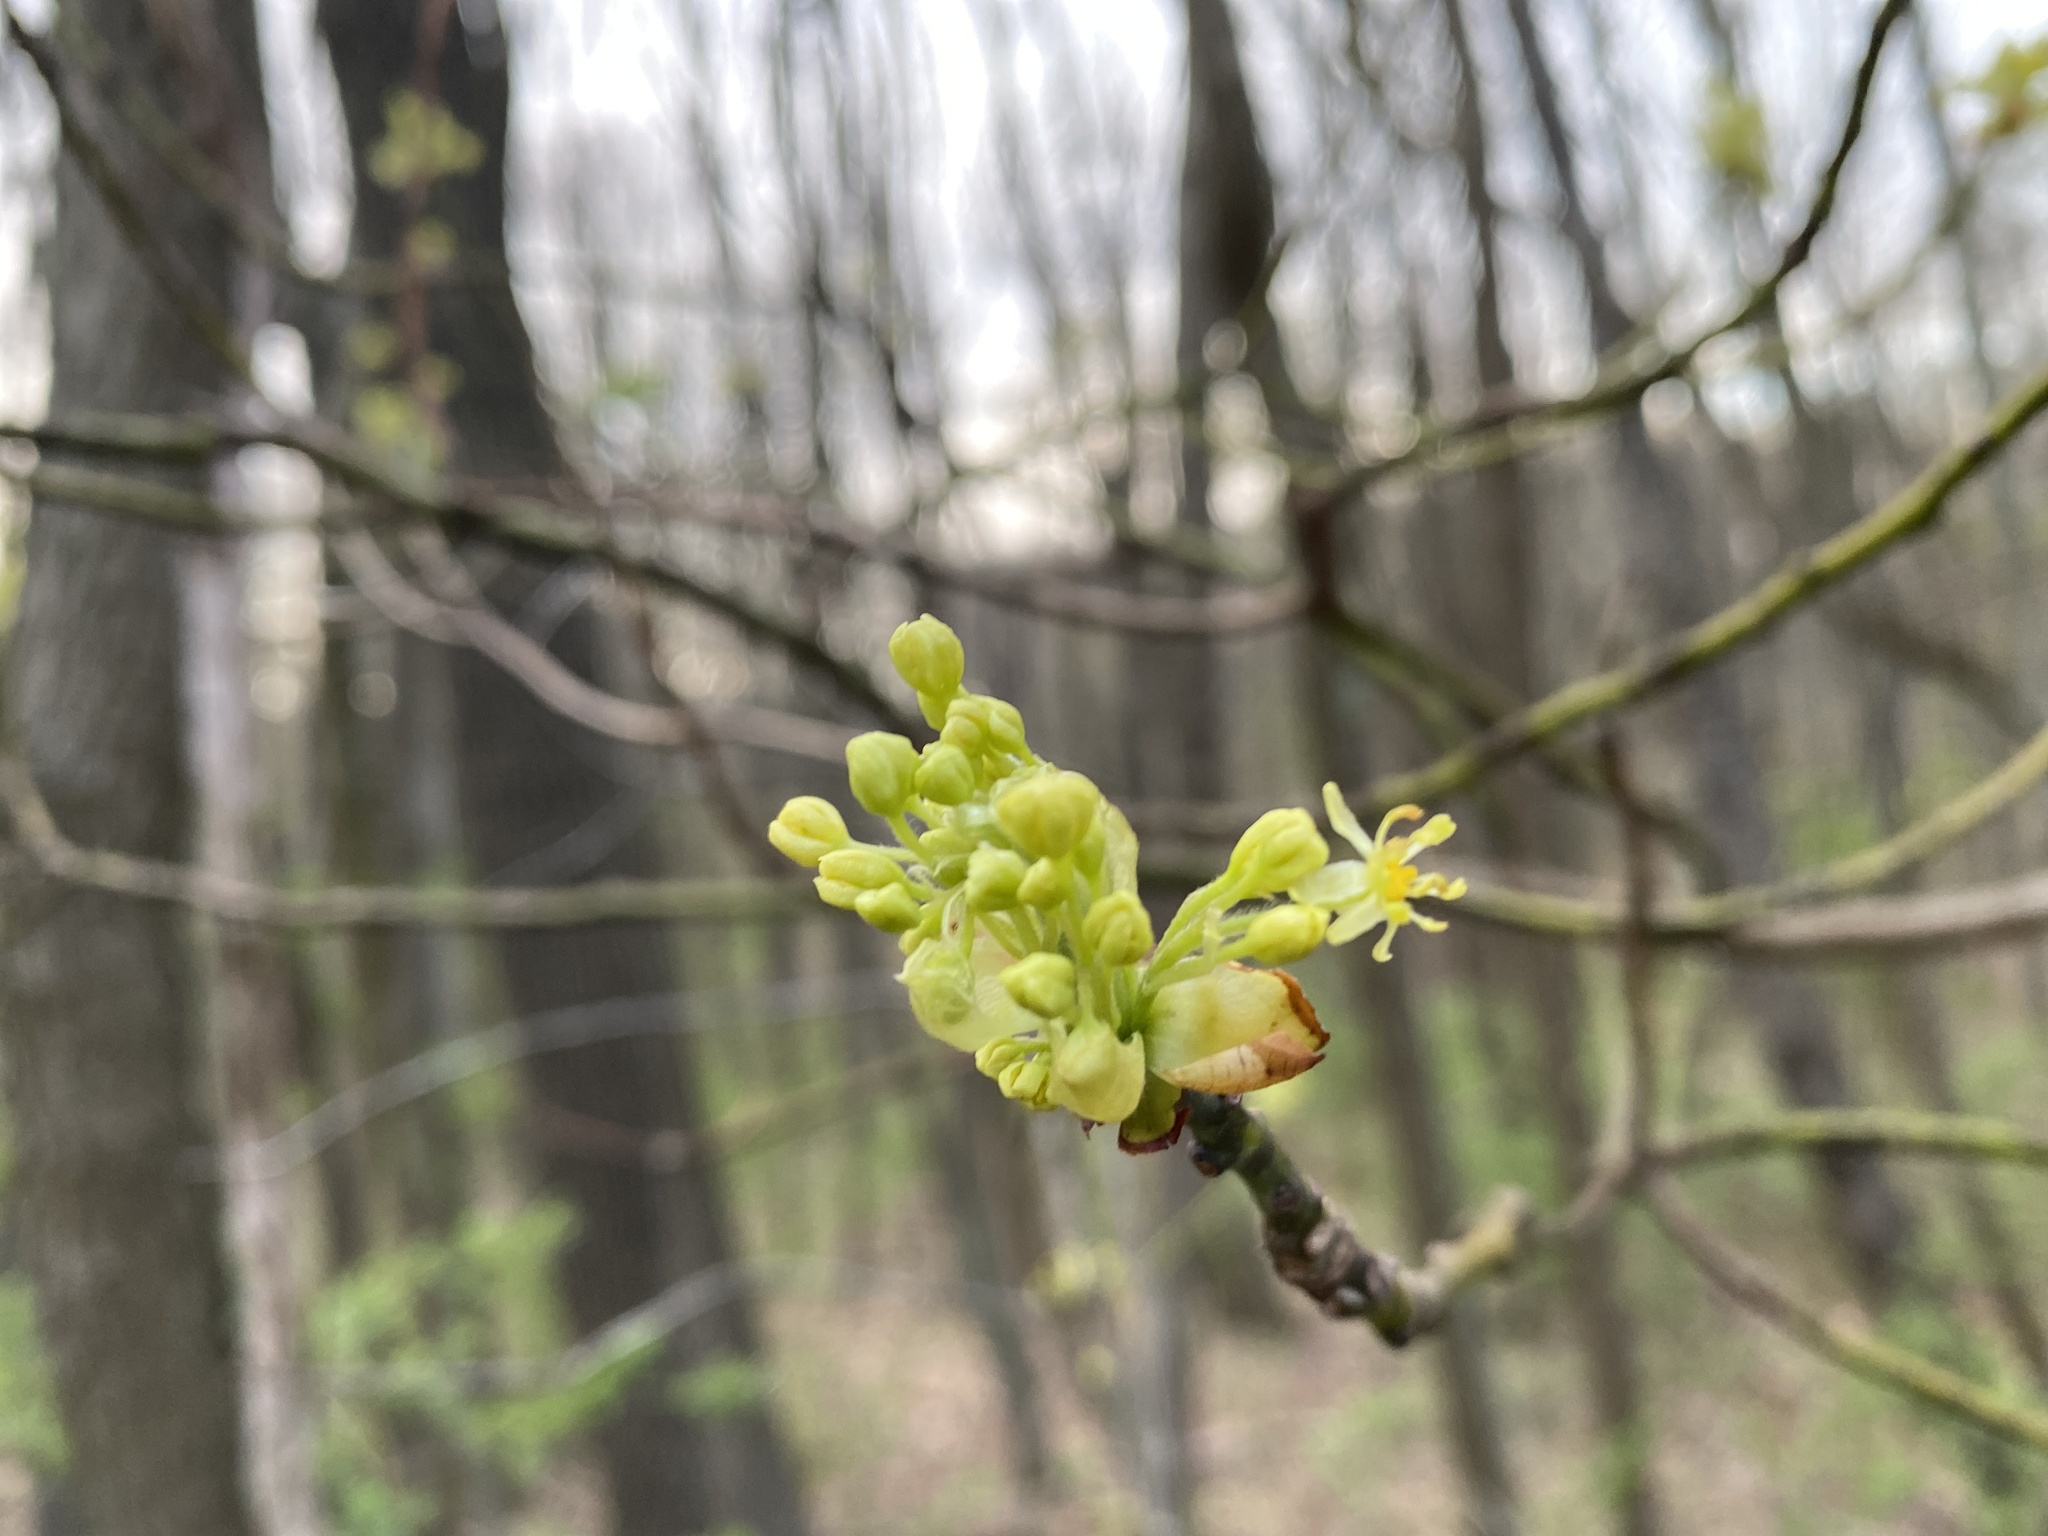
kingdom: Plantae
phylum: Tracheophyta
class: Magnoliopsida
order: Laurales
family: Lauraceae
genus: Sassafras
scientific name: Sassafras albidum
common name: Sassafras
